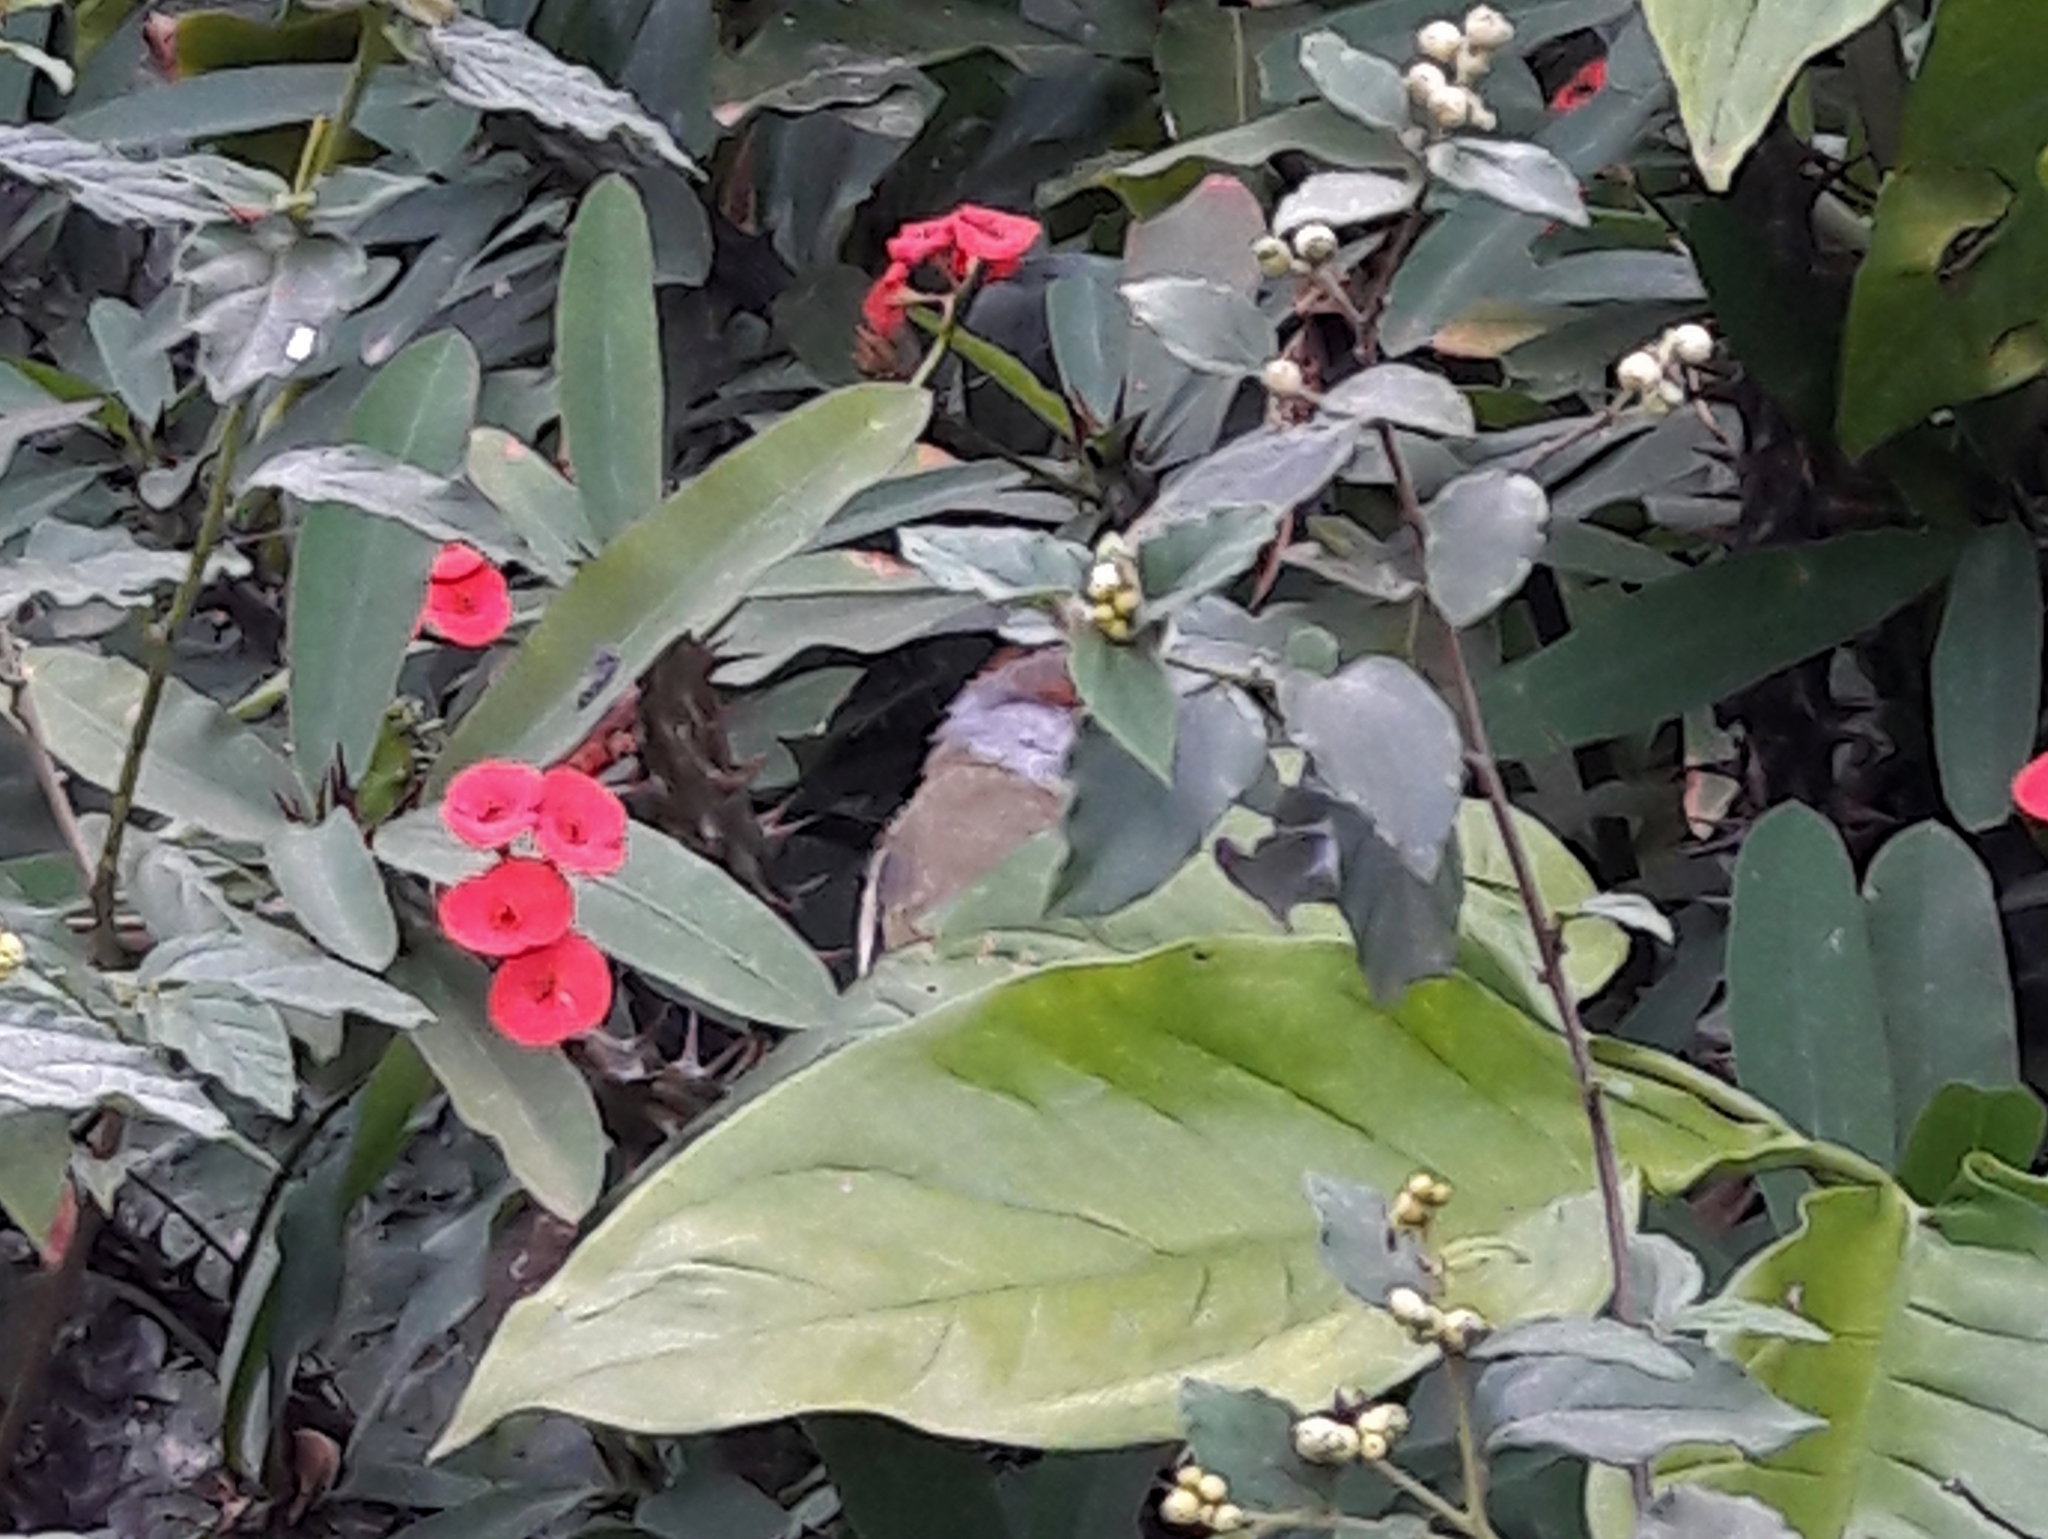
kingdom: Animalia
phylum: Chordata
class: Aves
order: Passeriformes
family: Vireonidae
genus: Cyclarhis
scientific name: Cyclarhis gujanensis
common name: Rufous-browed peppershrike
